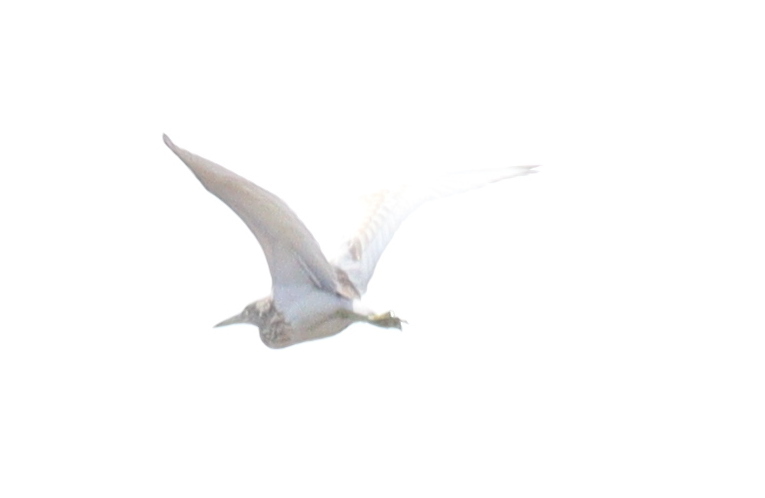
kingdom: Animalia
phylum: Chordata
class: Aves
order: Pelecaniformes
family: Ardeidae
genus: Ardeola
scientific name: Ardeola ralloides
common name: Squacco heron
